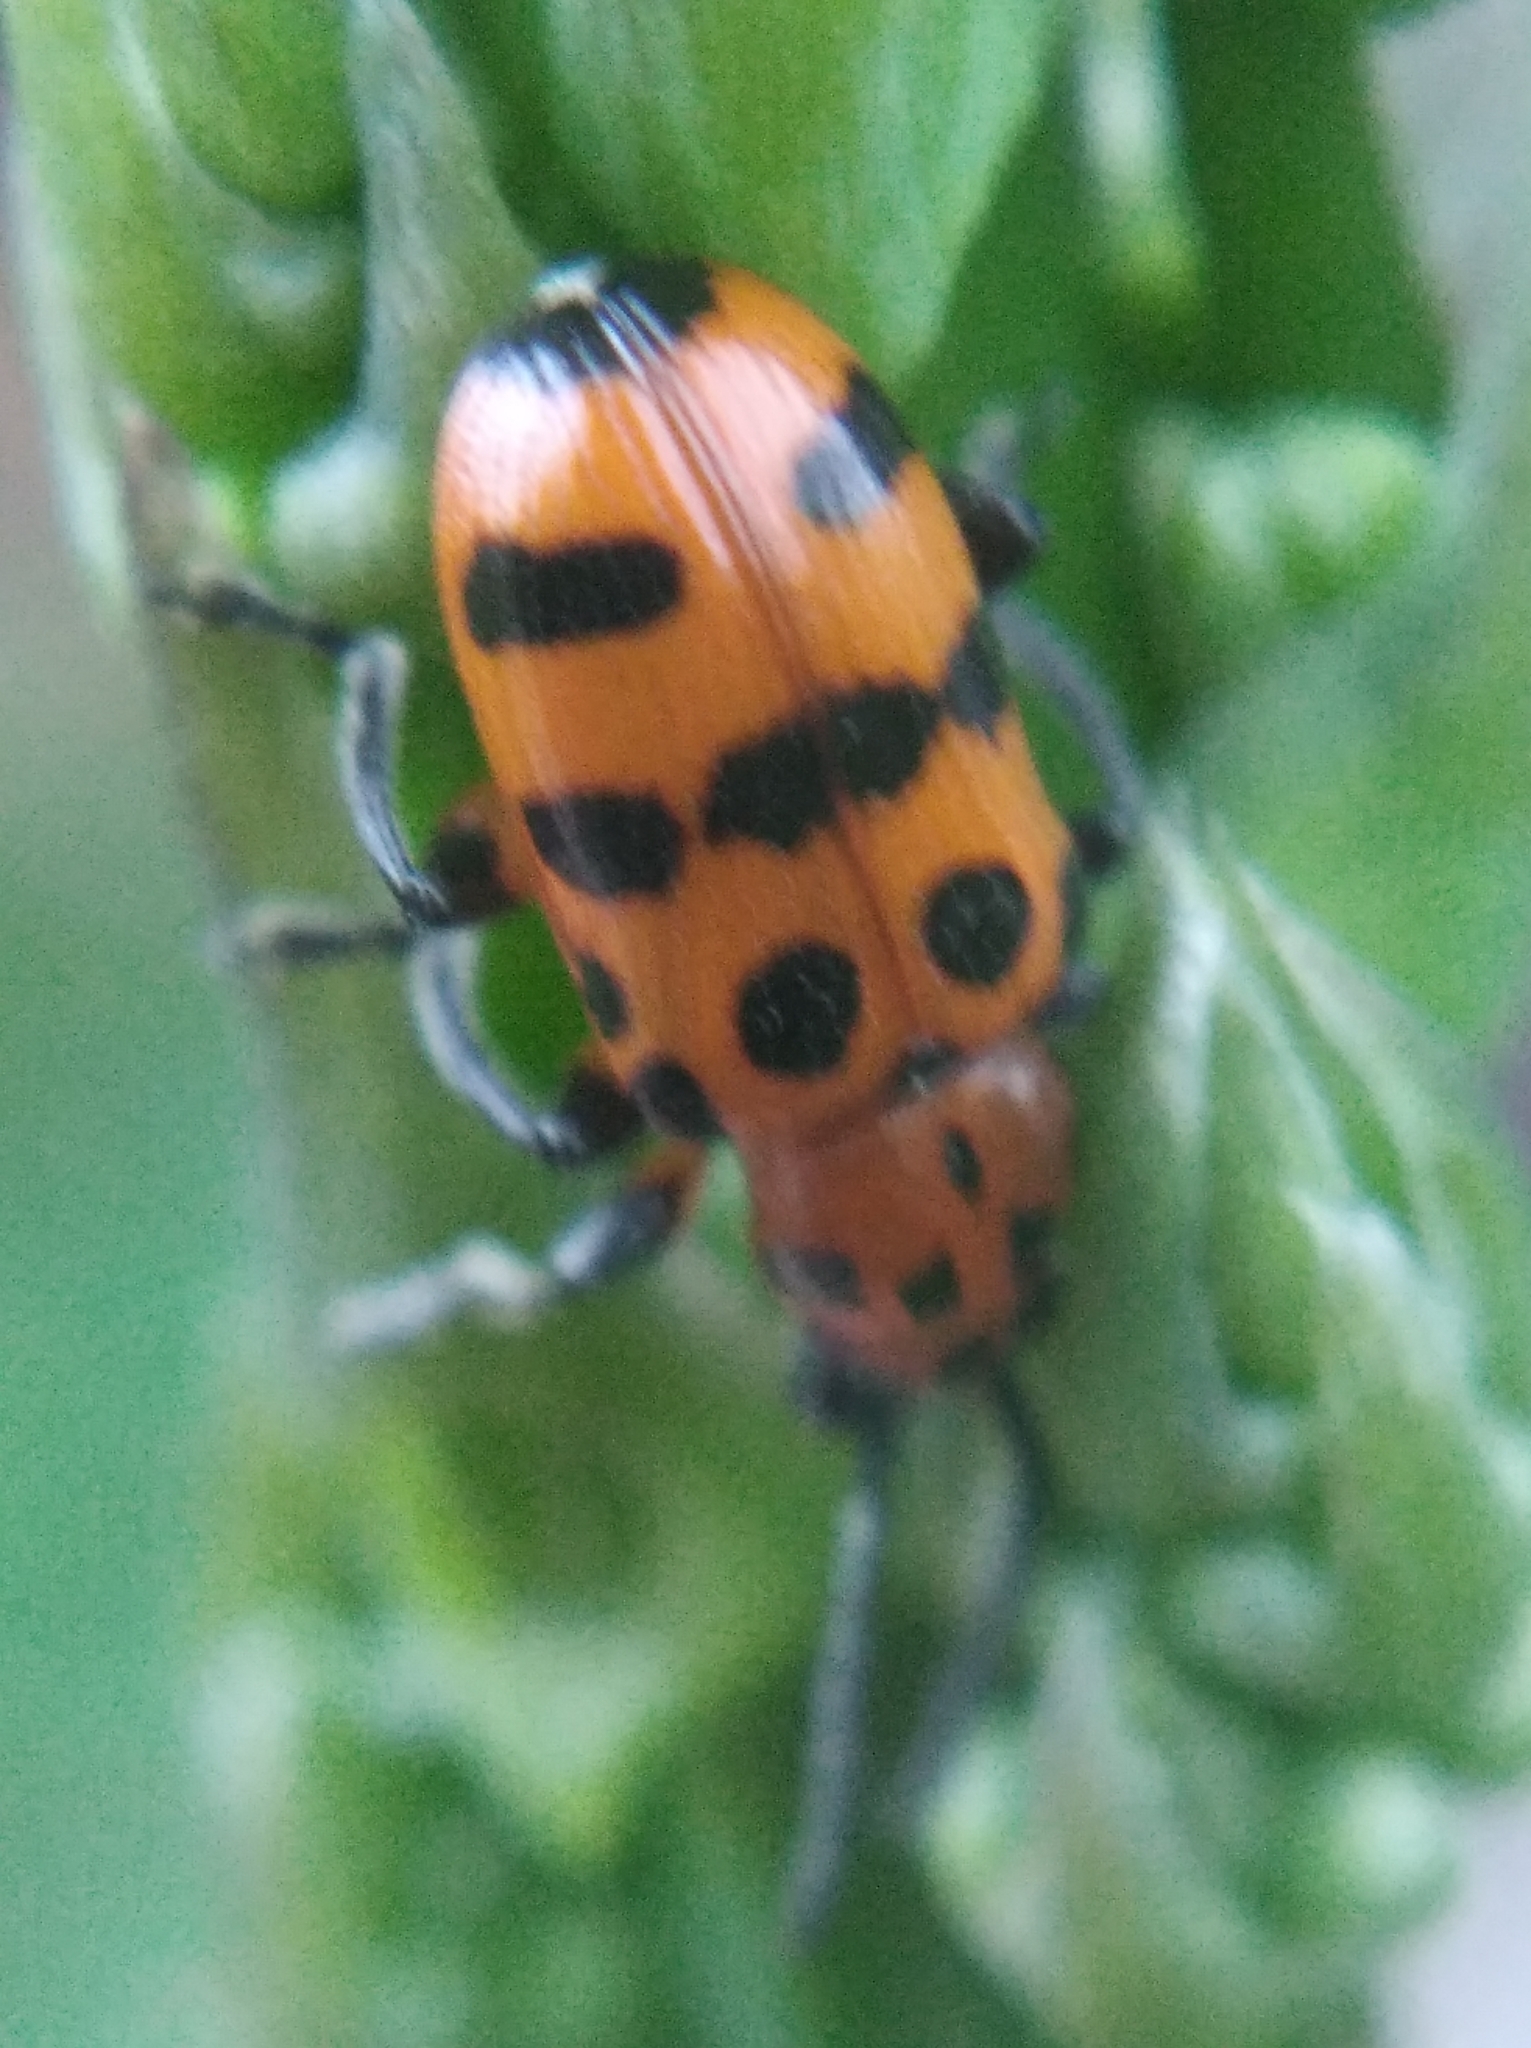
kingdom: Animalia
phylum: Arthropoda
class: Insecta
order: Coleoptera
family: Chrysomelidae
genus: Crioceris
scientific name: Crioceris quatuordecimpunctata
